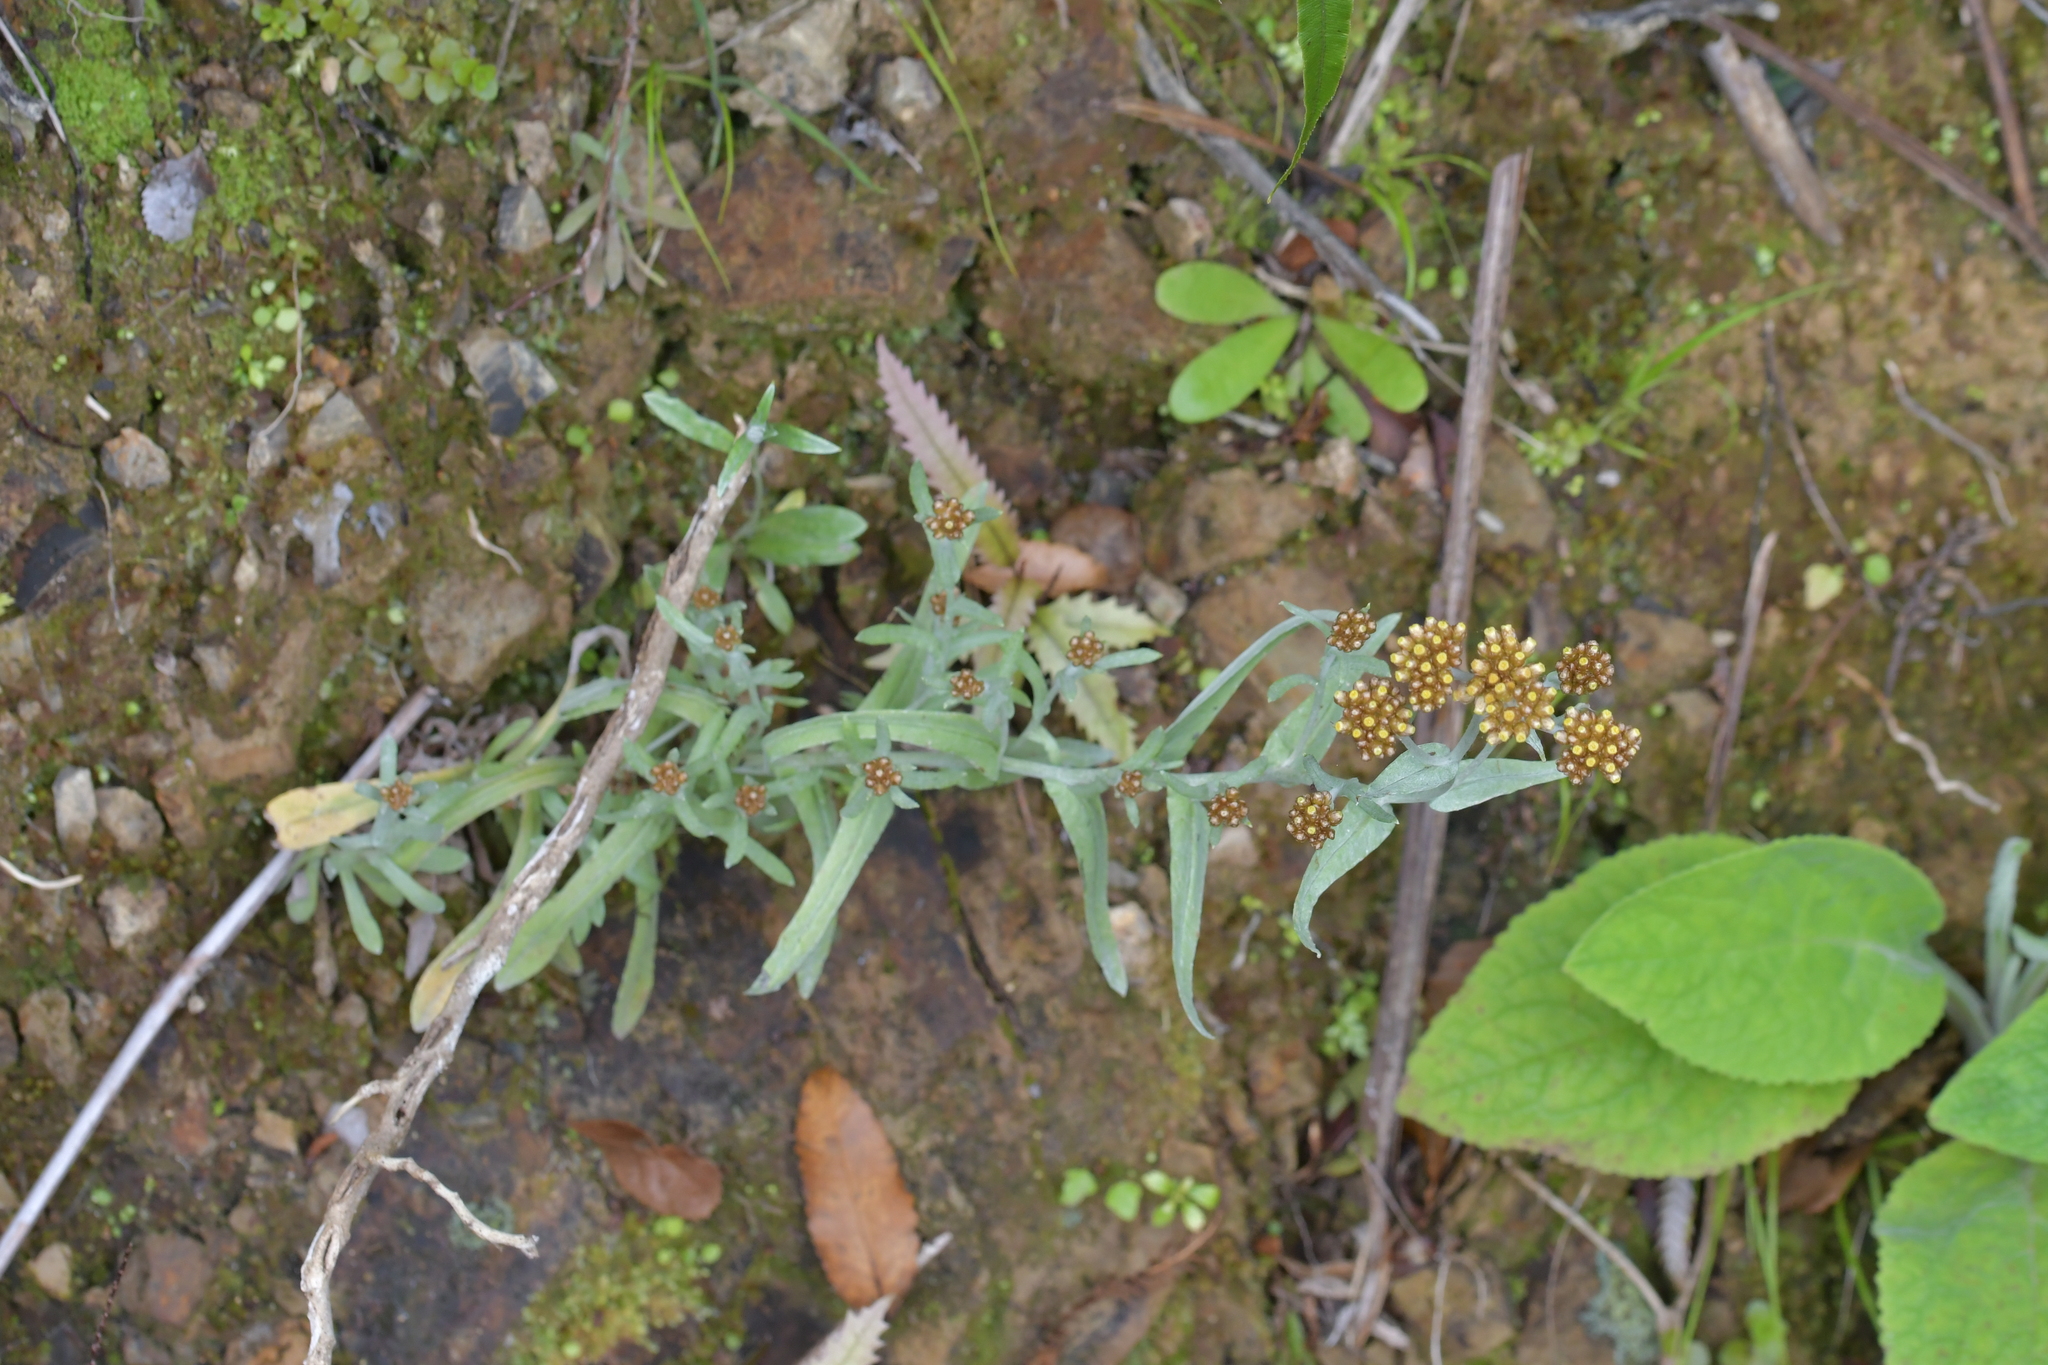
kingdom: Plantae
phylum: Tracheophyta
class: Magnoliopsida
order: Asterales
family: Asteraceae
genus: Helichrysum
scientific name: Helichrysum luteoalbum
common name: Daisy
